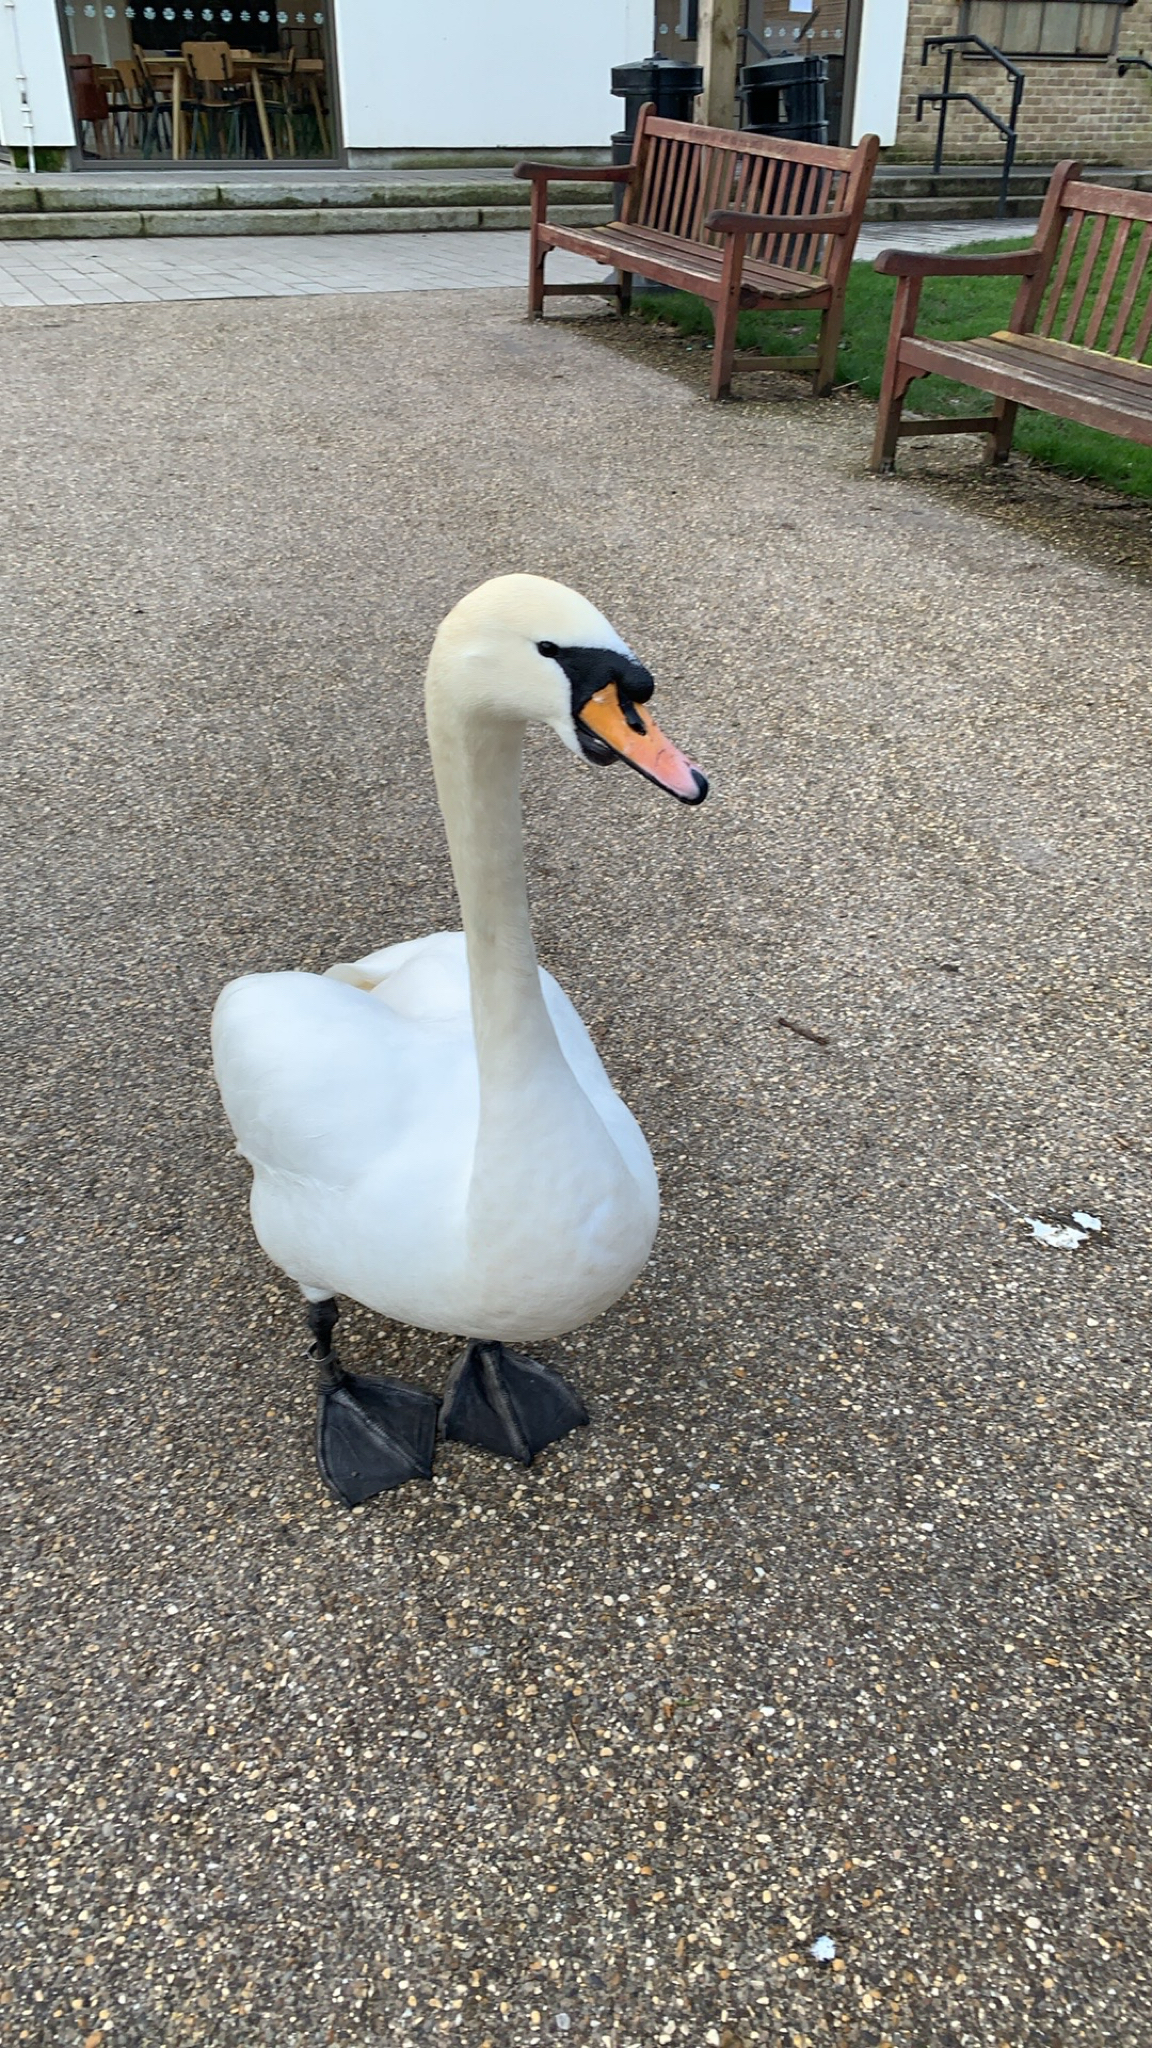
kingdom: Animalia
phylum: Chordata
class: Aves
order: Anseriformes
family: Anatidae
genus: Cygnus
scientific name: Cygnus olor
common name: Mute swan
